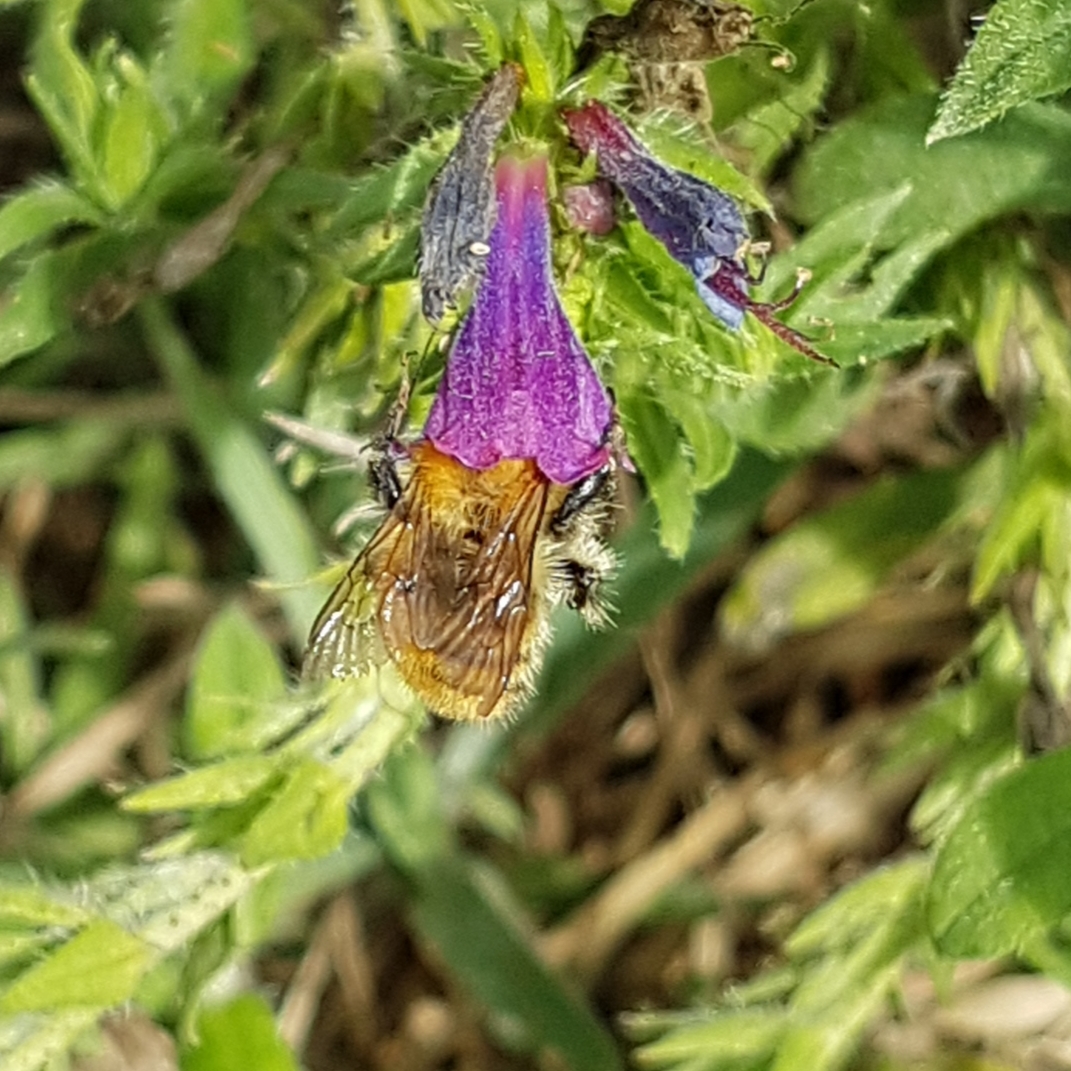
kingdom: Animalia
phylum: Arthropoda
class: Insecta
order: Hymenoptera
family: Apidae
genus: Bombus
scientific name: Bombus pascuorum
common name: Common carder bee
